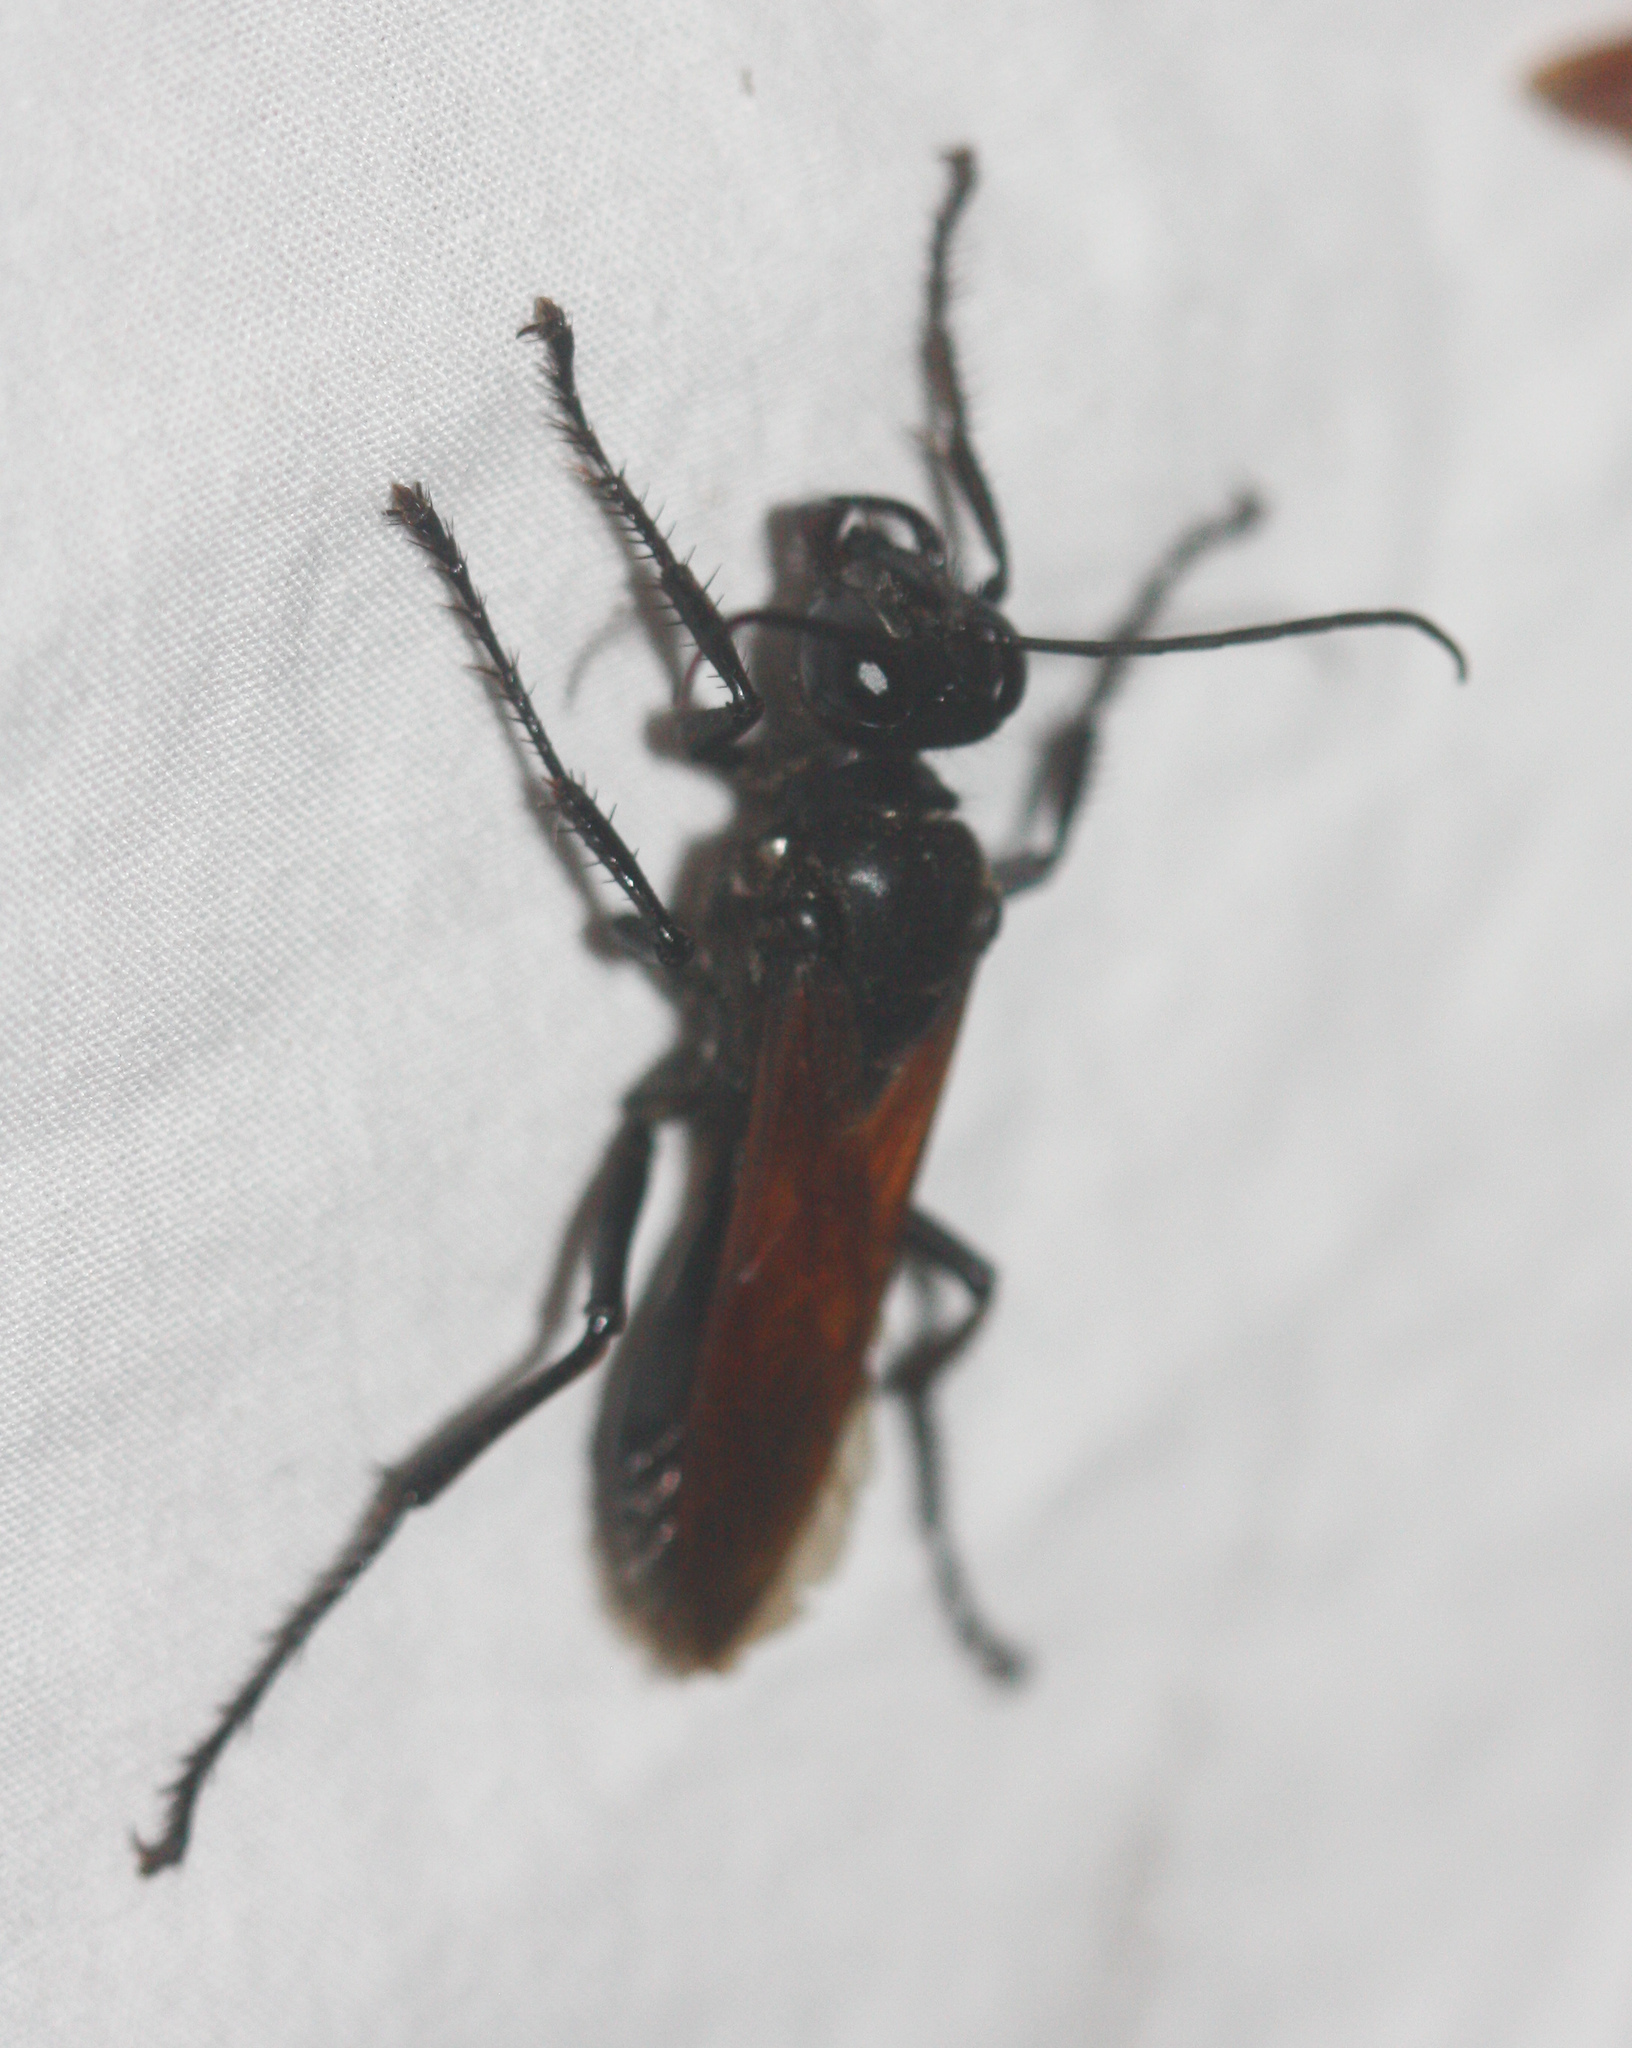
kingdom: Animalia
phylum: Arthropoda
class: Insecta
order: Hymenoptera
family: Sphecidae
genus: Sphex
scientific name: Sphex tepanecus
